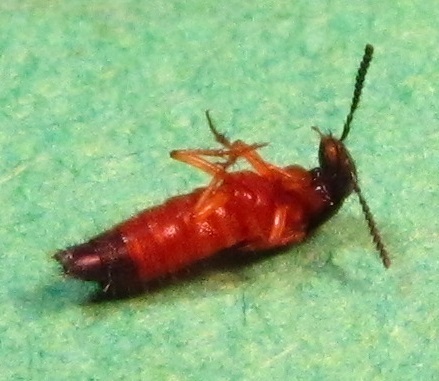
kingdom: Animalia
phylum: Arthropoda
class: Insecta
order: Coleoptera
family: Staphylinidae
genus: Belonuchus
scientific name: Belonuchus rufipennis
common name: Large rove beetle
